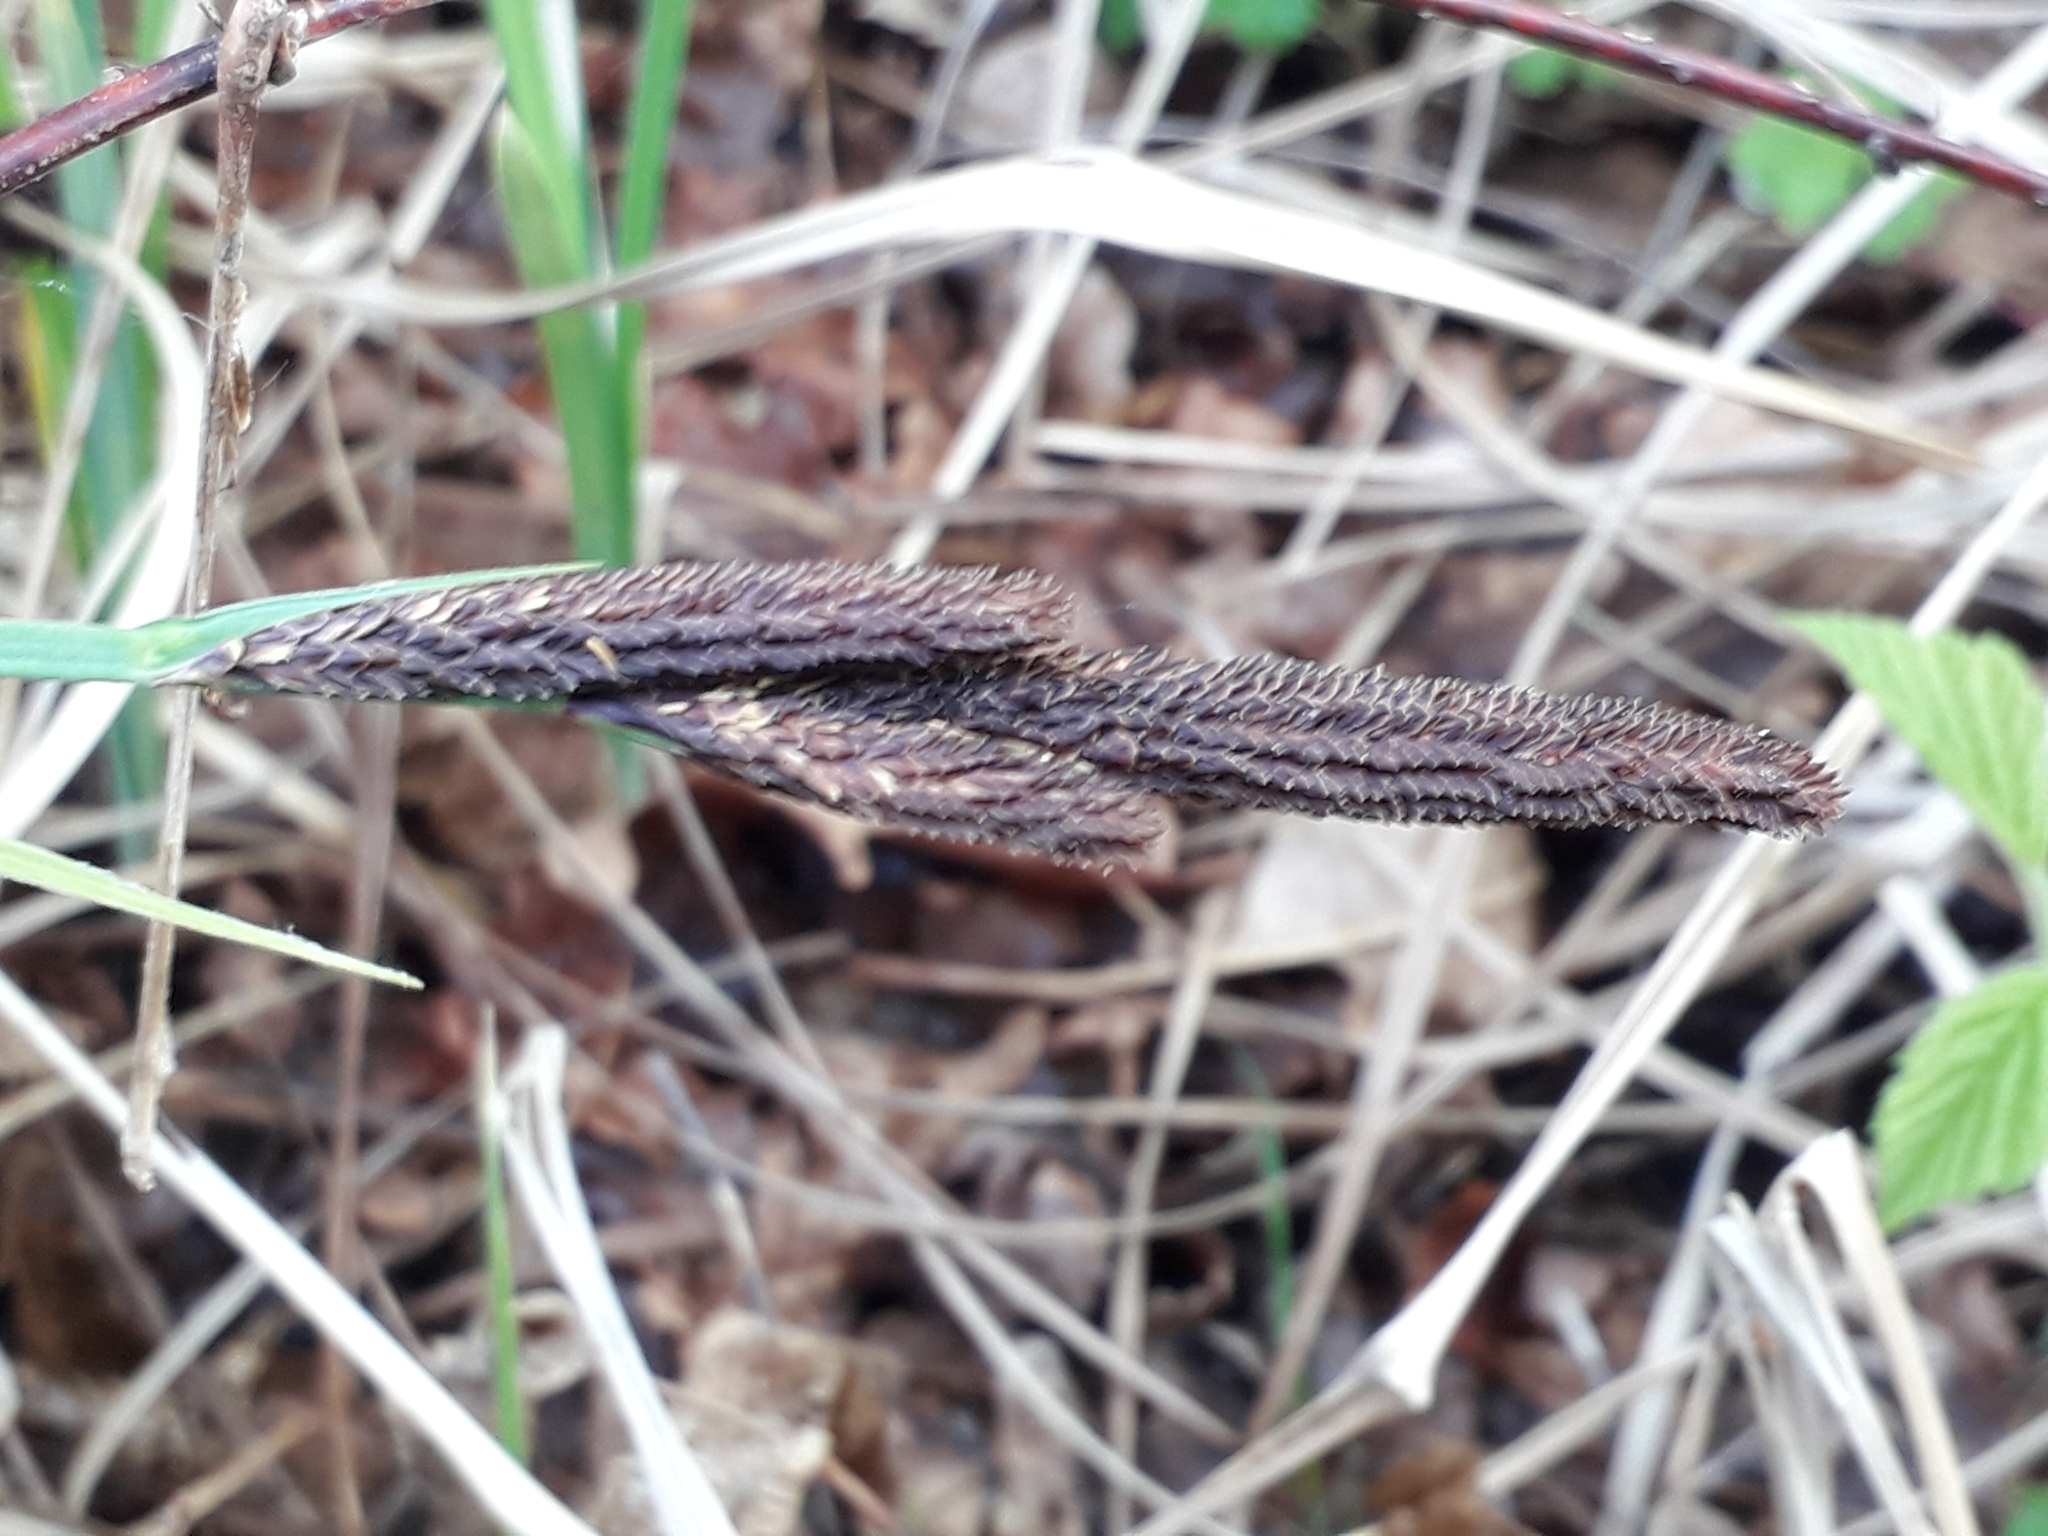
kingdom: Plantae
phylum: Tracheophyta
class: Liliopsida
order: Poales
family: Cyperaceae
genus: Carex
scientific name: Carex flacca
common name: Glaucous sedge
